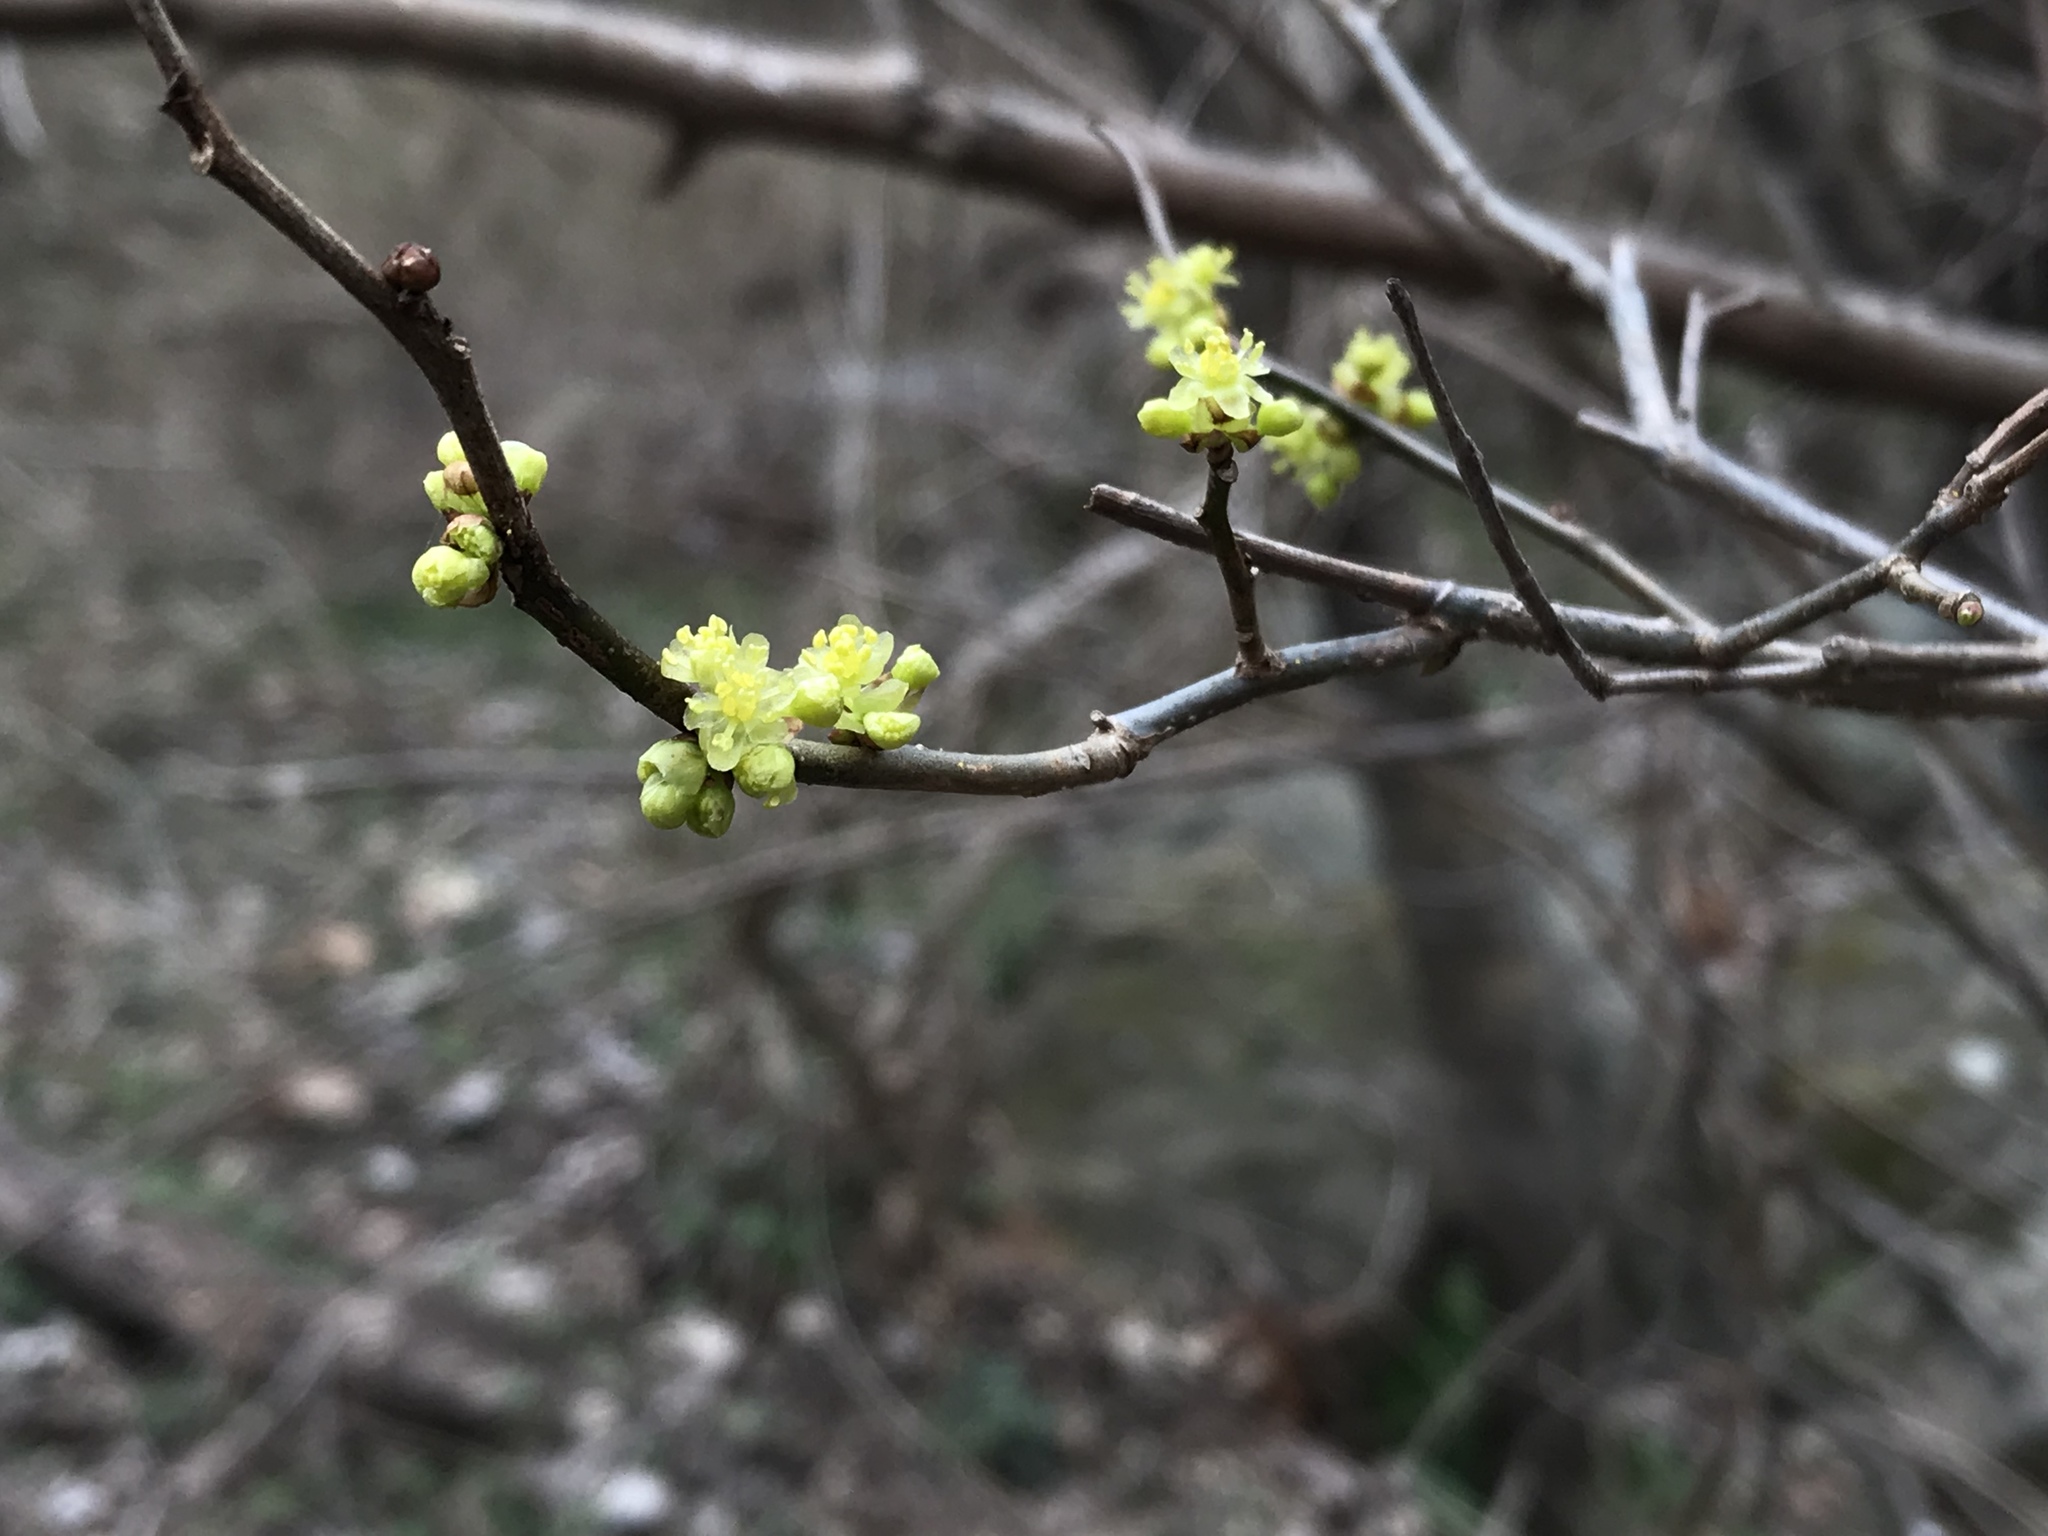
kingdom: Plantae
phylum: Tracheophyta
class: Magnoliopsida
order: Laurales
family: Lauraceae
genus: Lindera
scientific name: Lindera benzoin
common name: Spicebush
